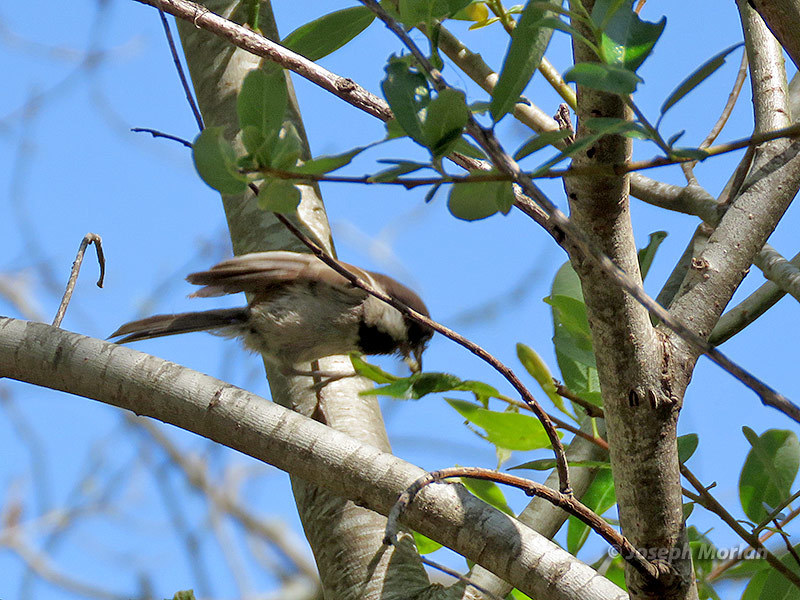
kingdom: Animalia
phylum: Chordata
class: Aves
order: Passeriformes
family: Paridae
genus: Poecile
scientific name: Poecile rufescens
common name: Chestnut-backed chickadee
